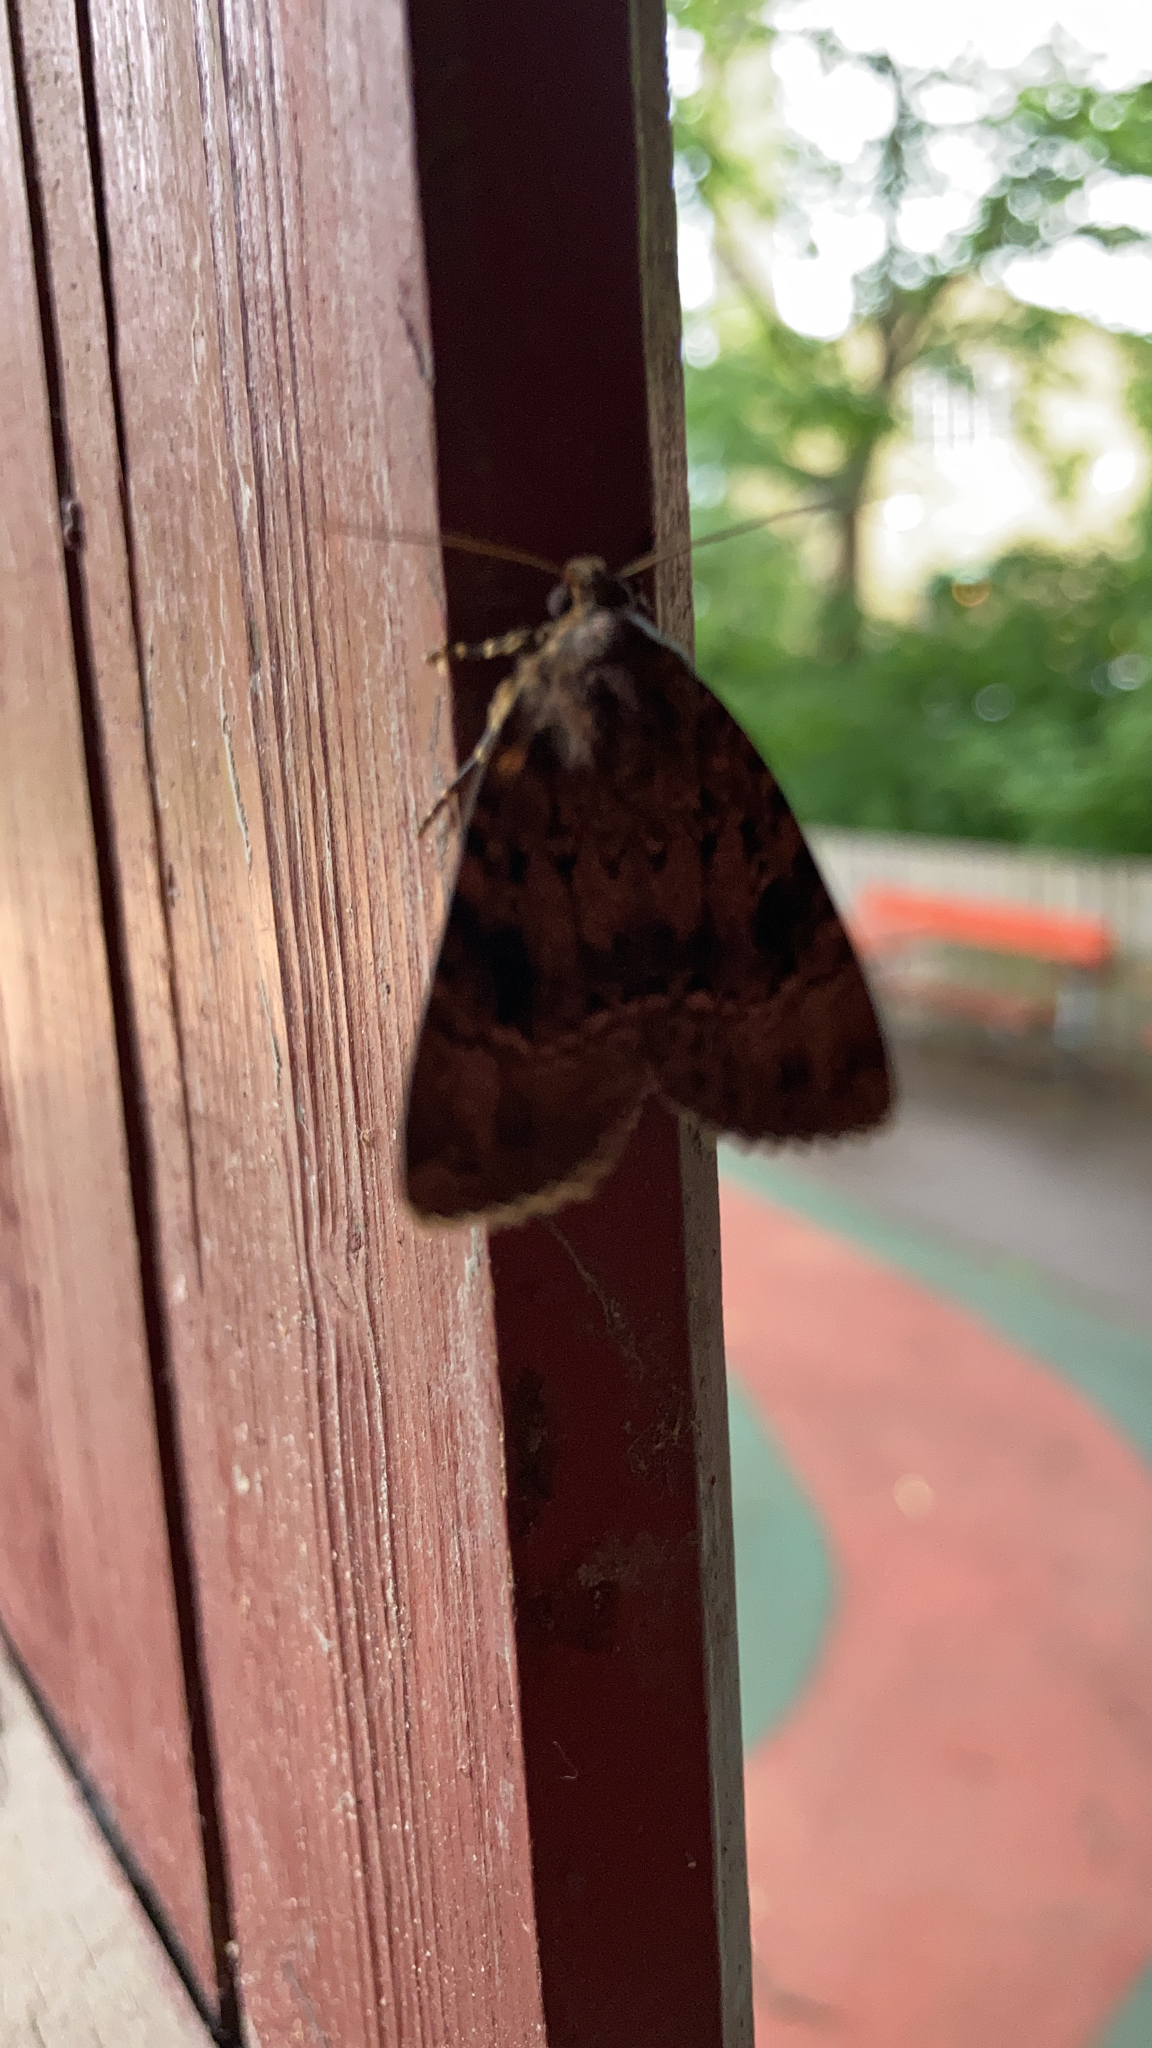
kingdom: Animalia
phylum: Arthropoda
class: Insecta
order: Lepidoptera
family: Noctuidae
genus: Amphipyra
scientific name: Amphipyra pyramidea
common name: Copper underwing
